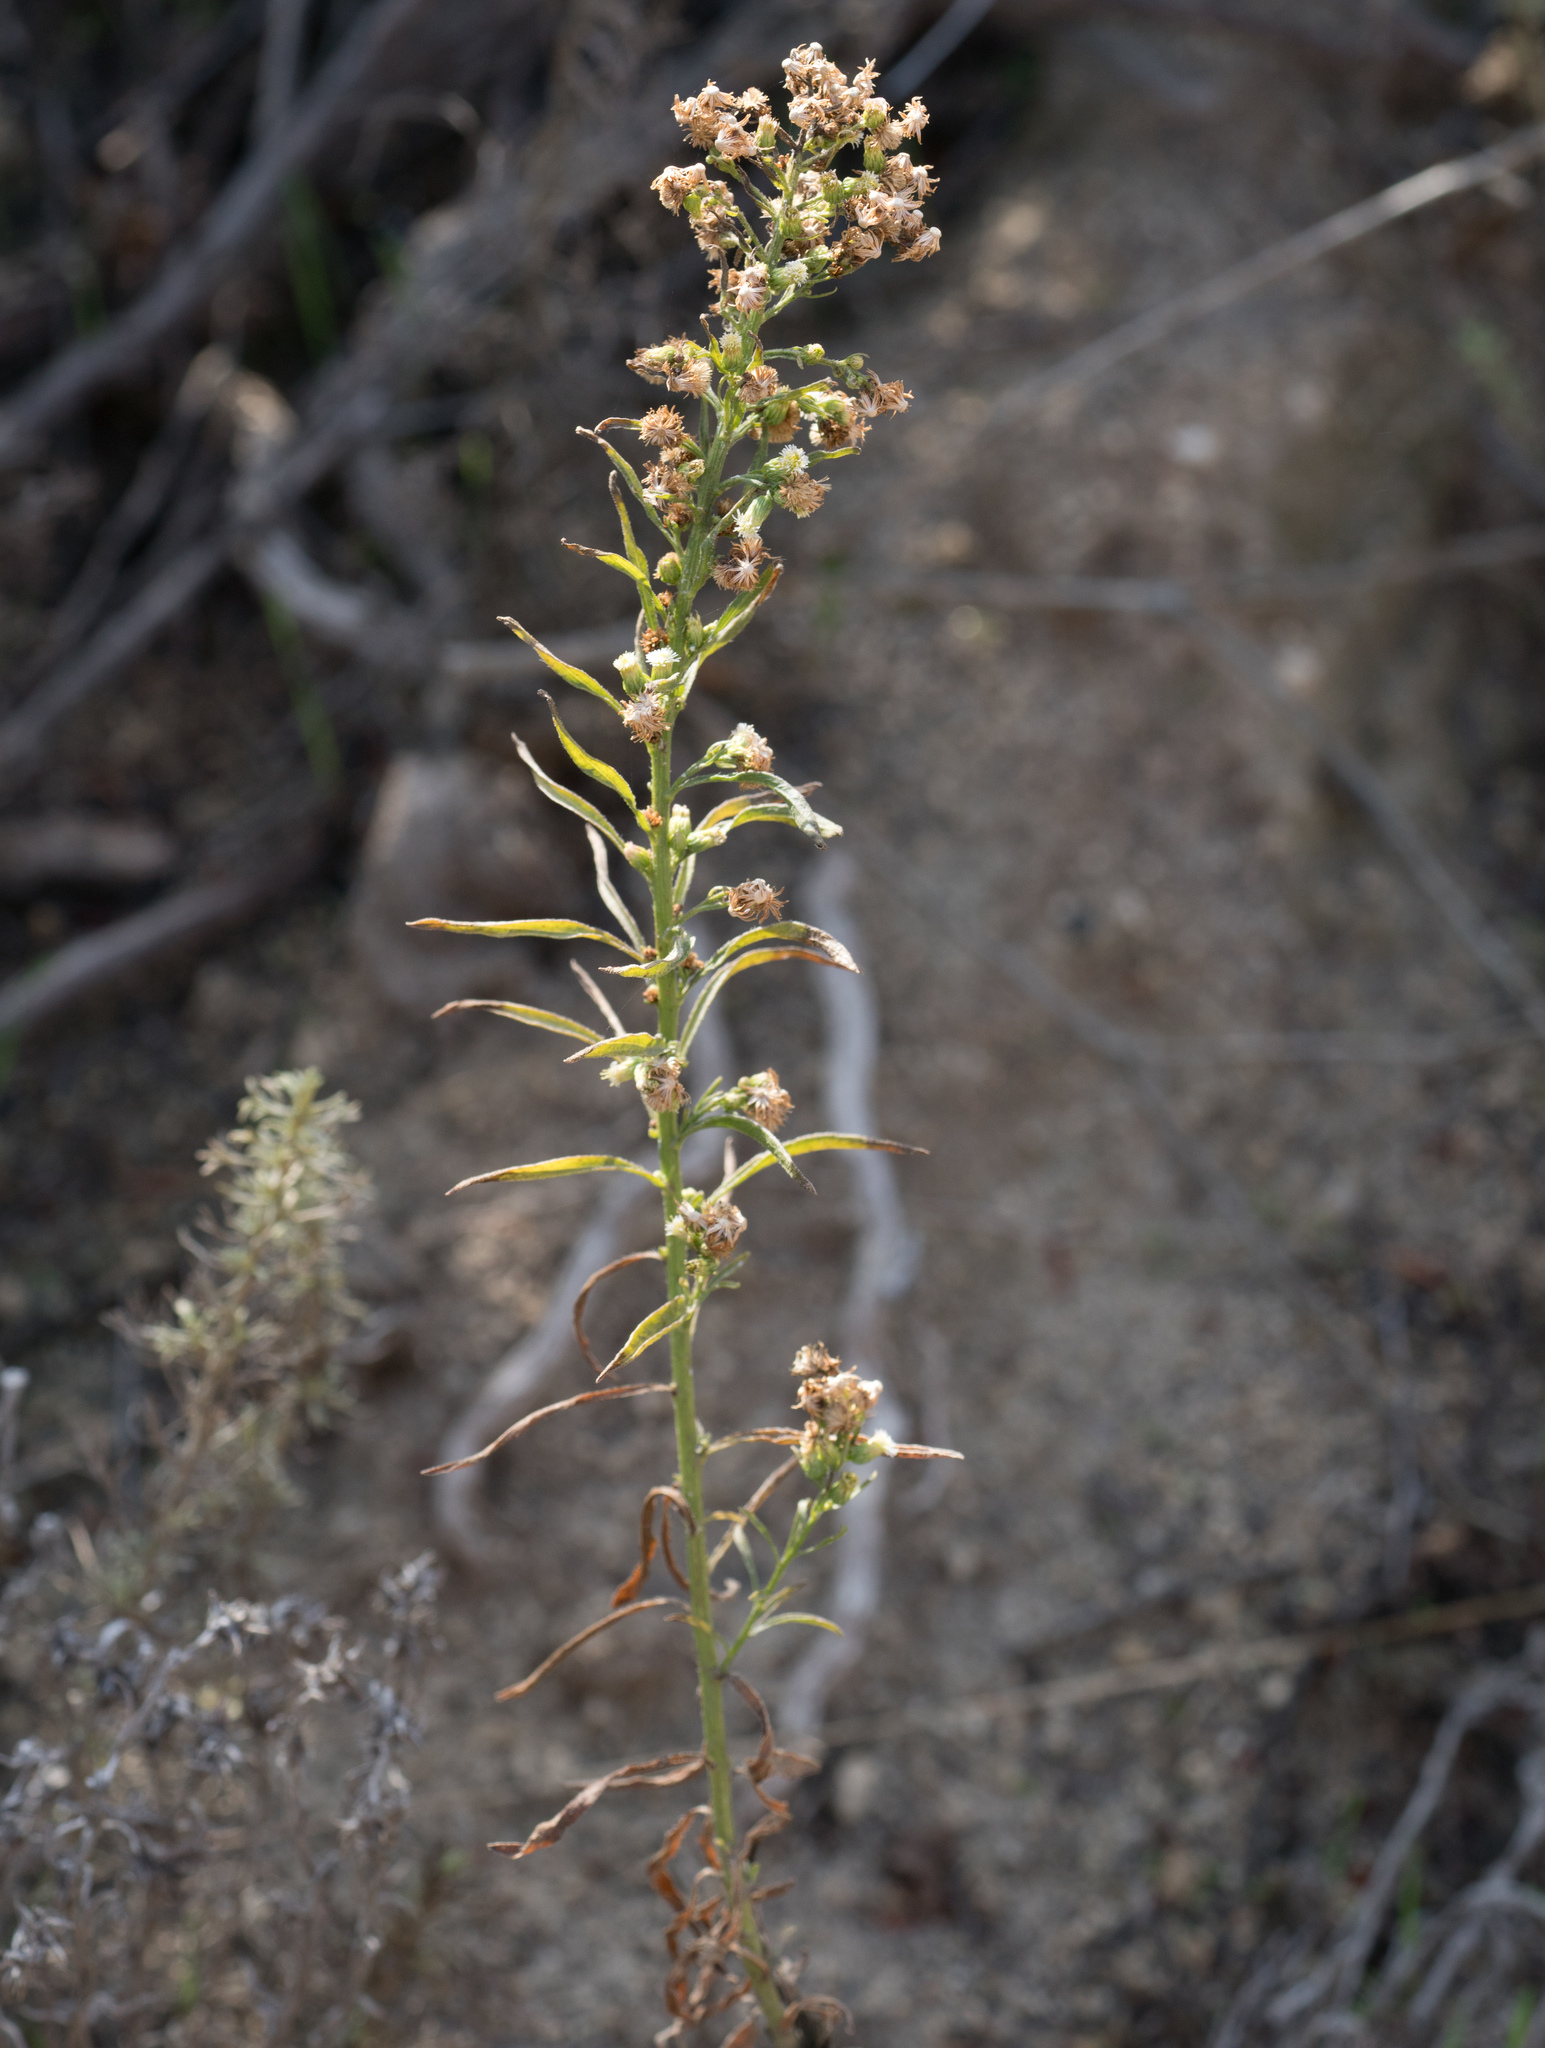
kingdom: Plantae
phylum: Tracheophyta
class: Magnoliopsida
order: Asterales
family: Asteraceae
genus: Erigeron
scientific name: Erigeron canadensis
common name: Canadian fleabane
